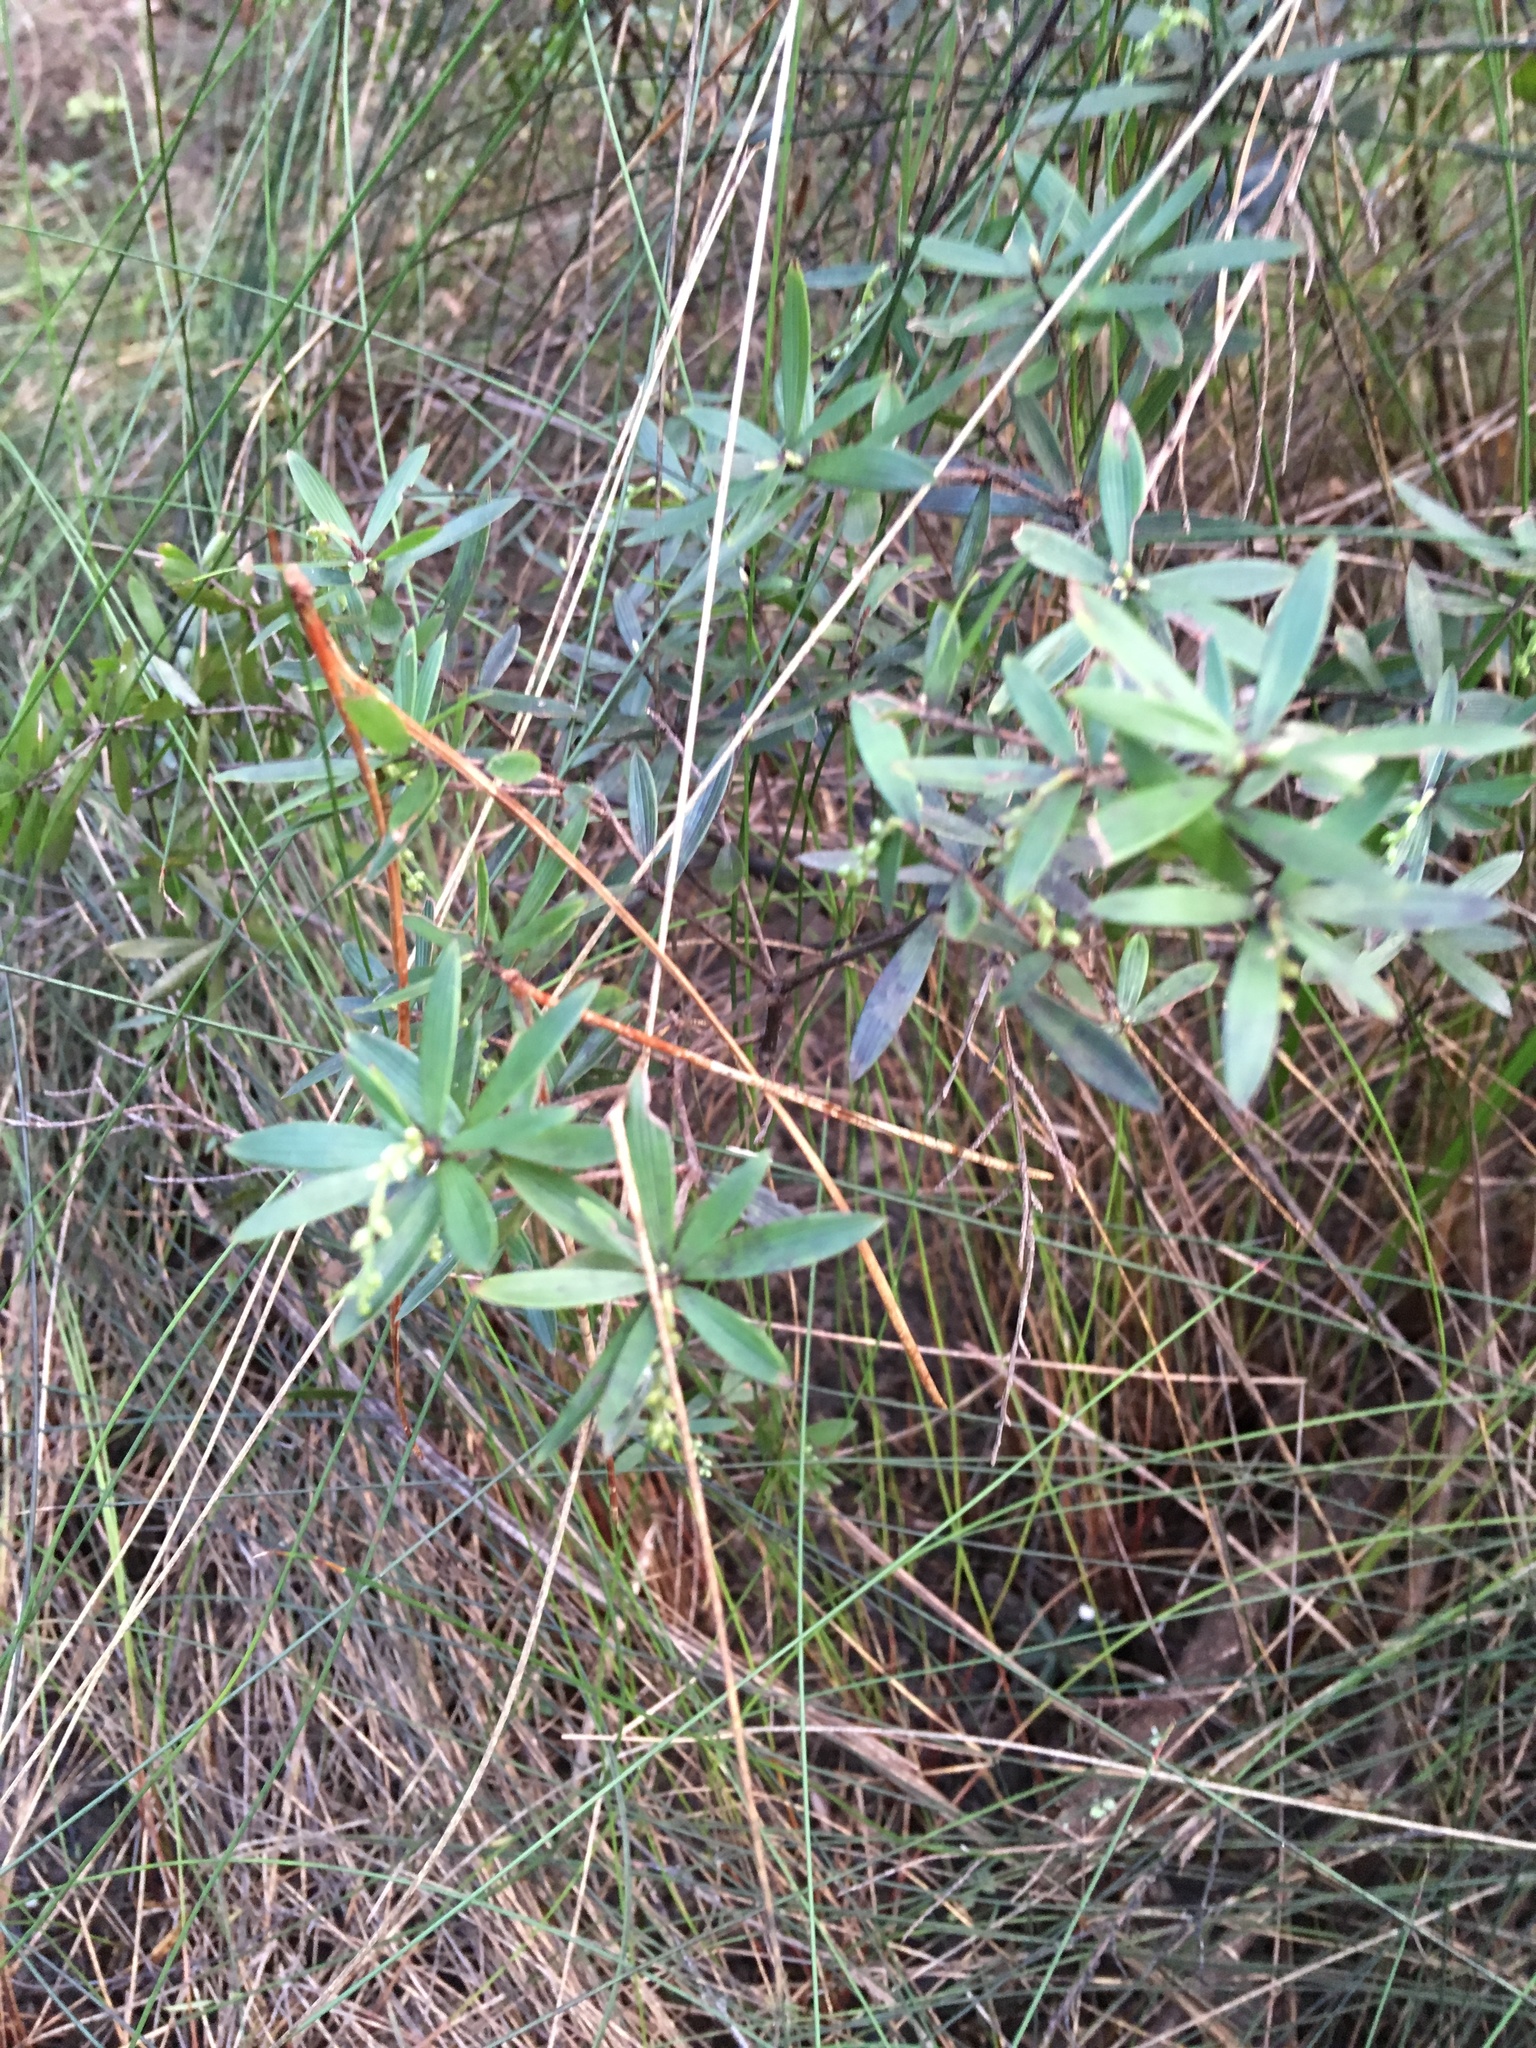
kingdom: Plantae
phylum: Tracheophyta
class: Magnoliopsida
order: Ericales
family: Ericaceae
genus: Leucopogon
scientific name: Leucopogon fasciculatus
